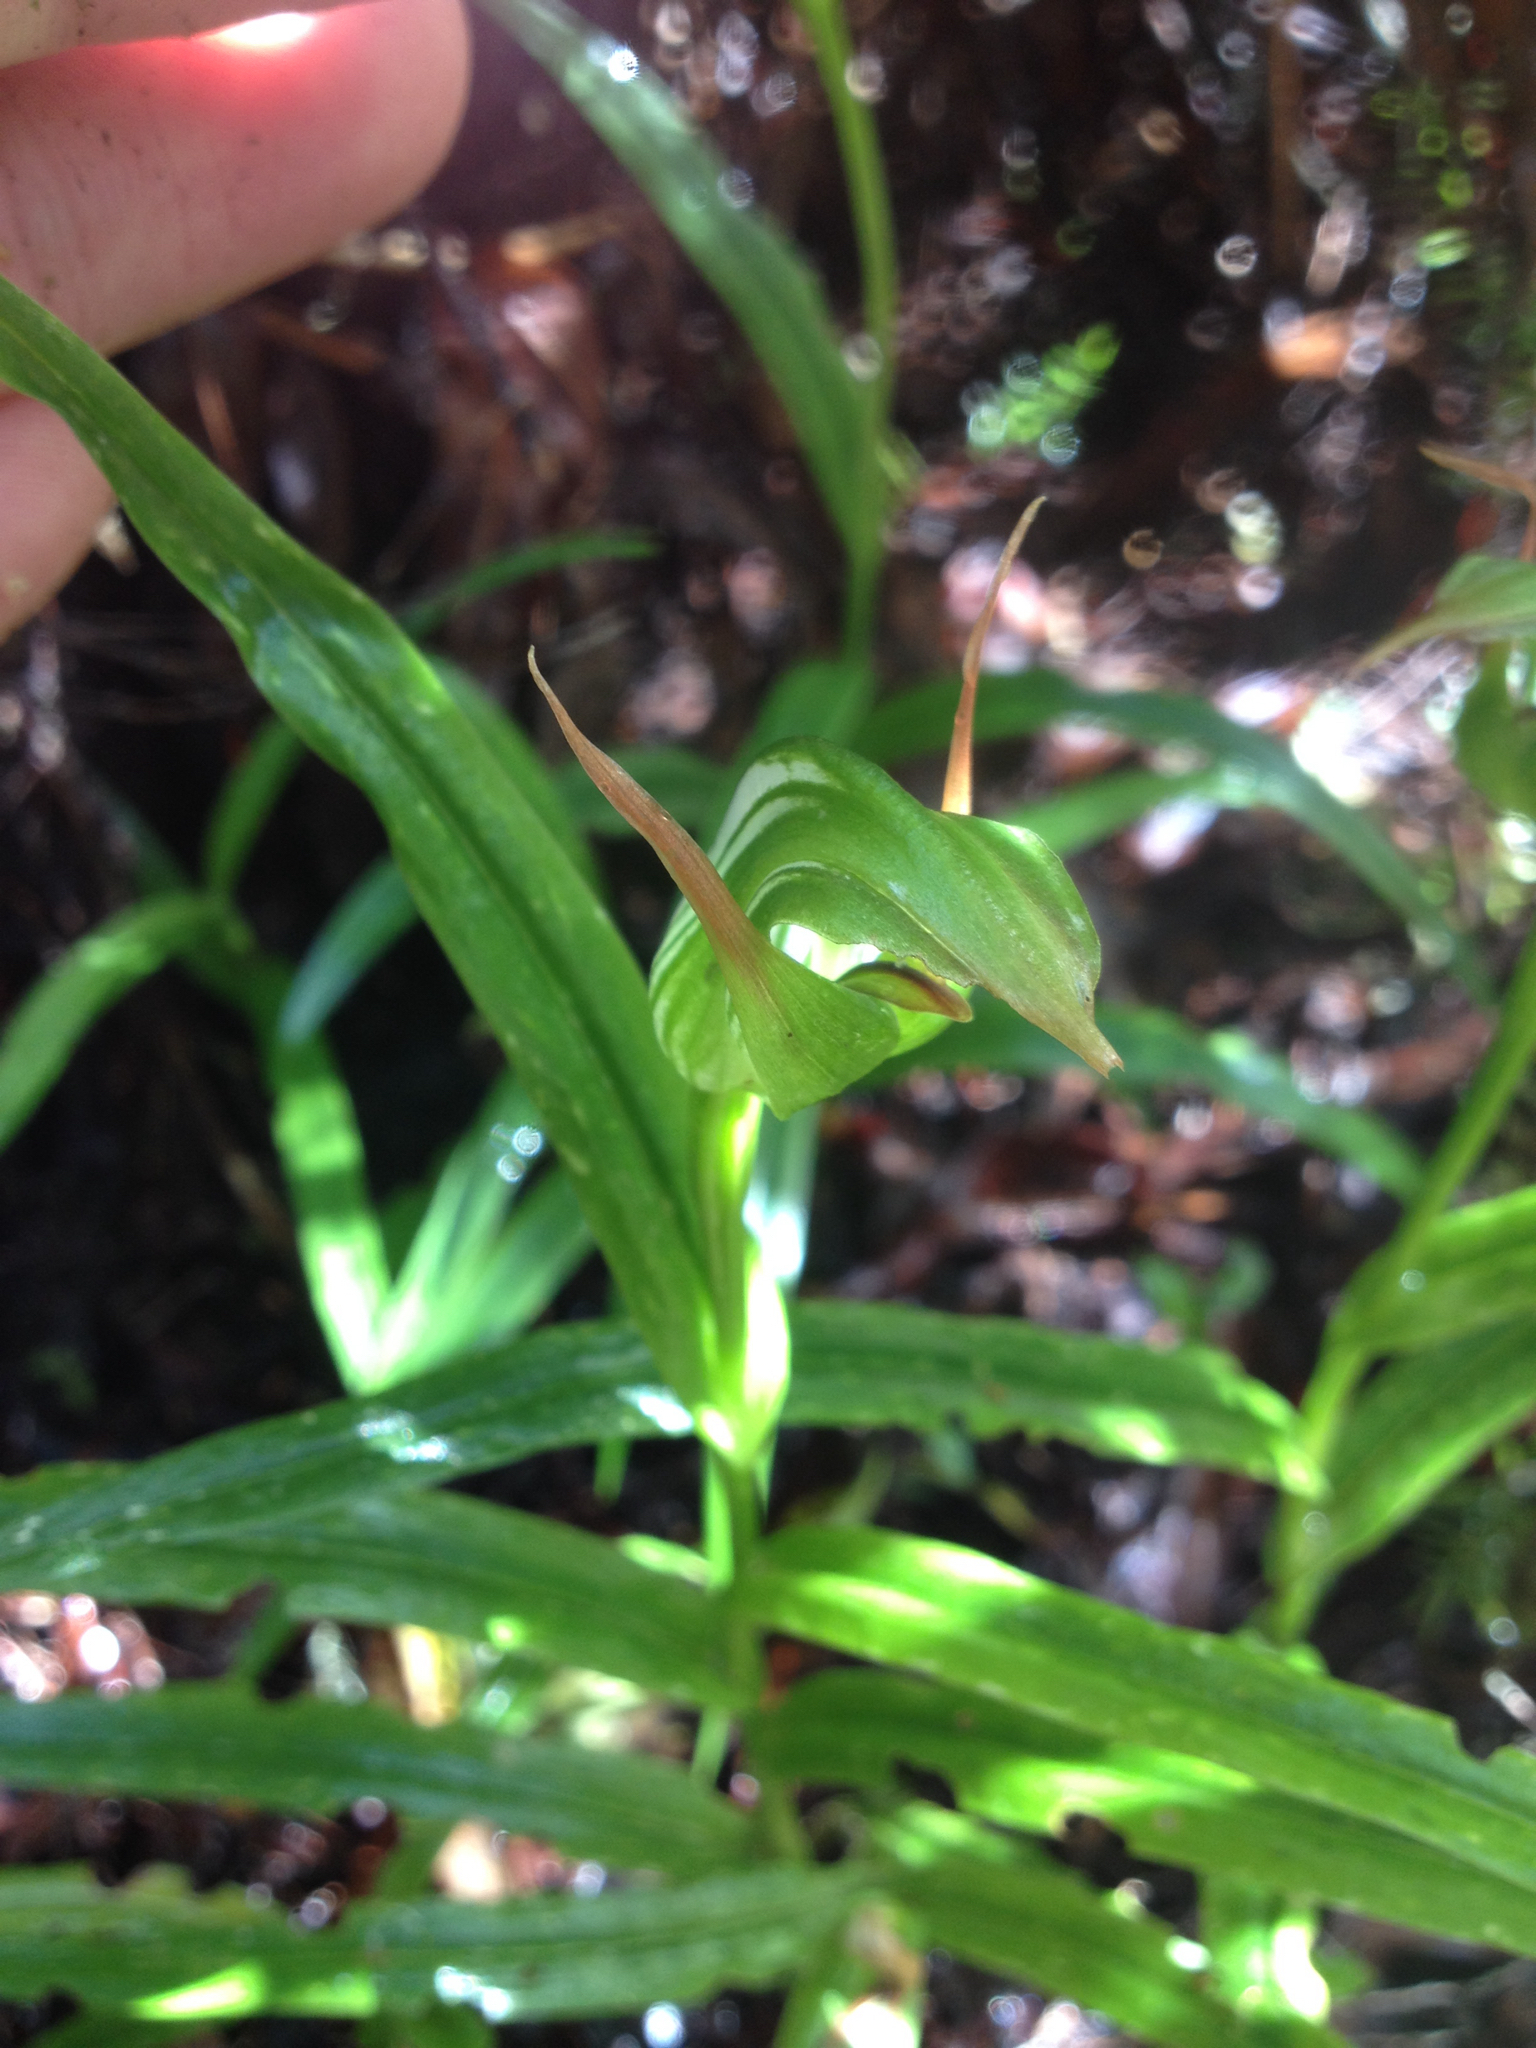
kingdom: Plantae
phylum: Tracheophyta
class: Liliopsida
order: Asparagales
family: Orchidaceae
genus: Pterostylis
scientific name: Pterostylis auriculata
